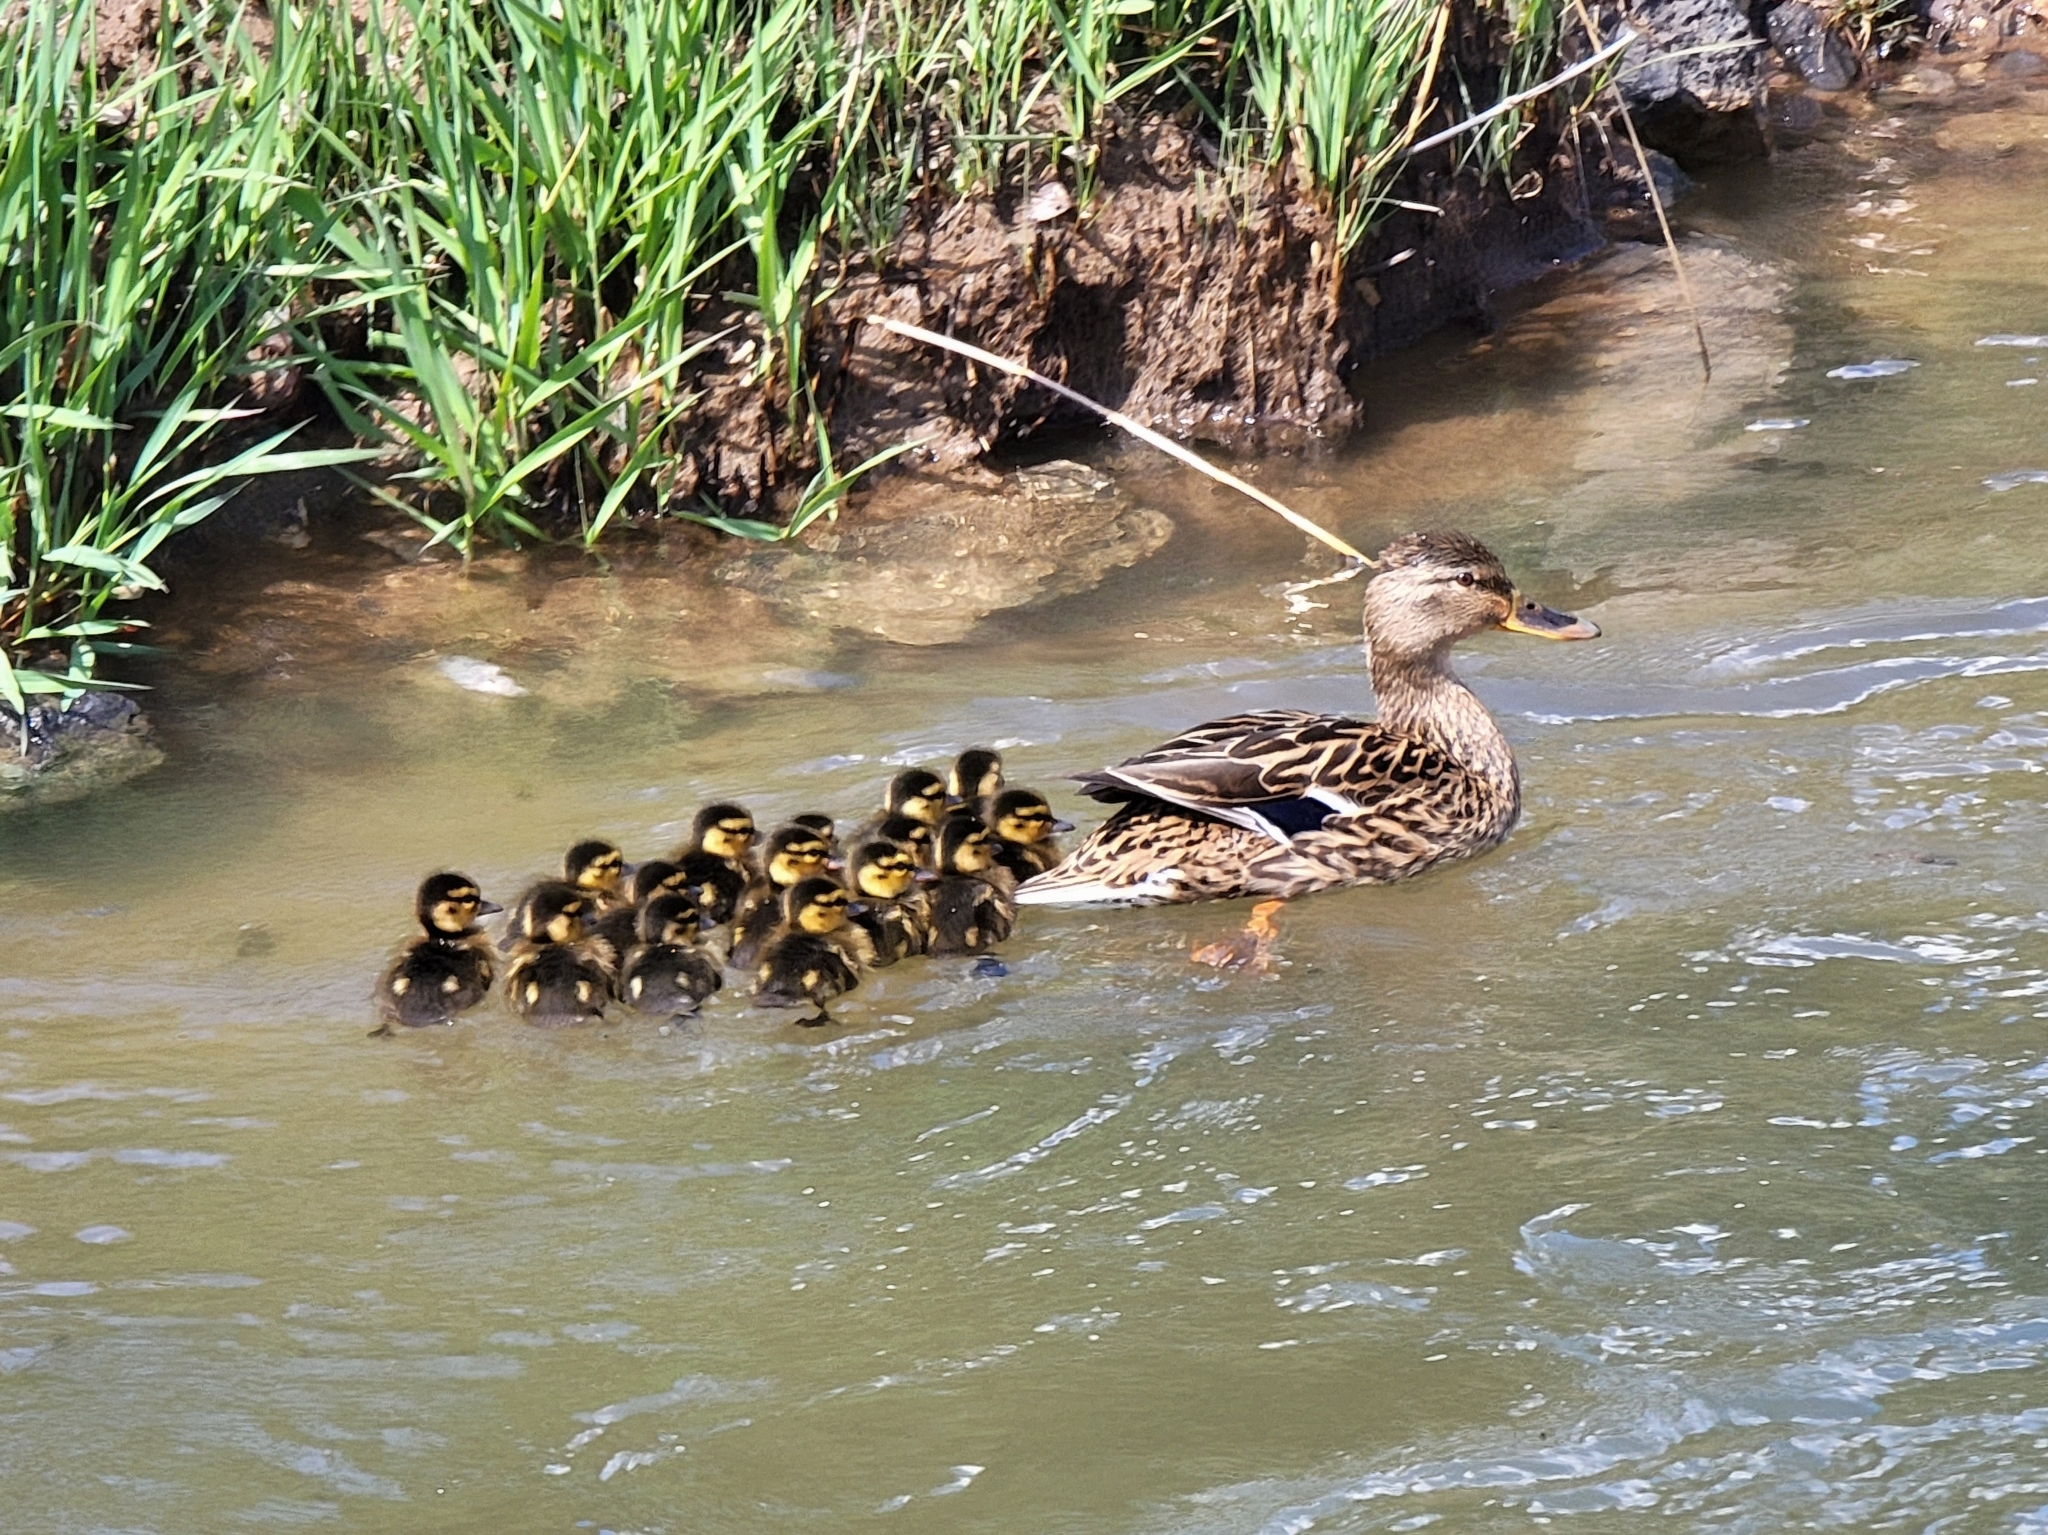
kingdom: Animalia
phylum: Chordata
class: Aves
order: Anseriformes
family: Anatidae
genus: Anas
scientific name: Anas platyrhynchos
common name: Mallard
